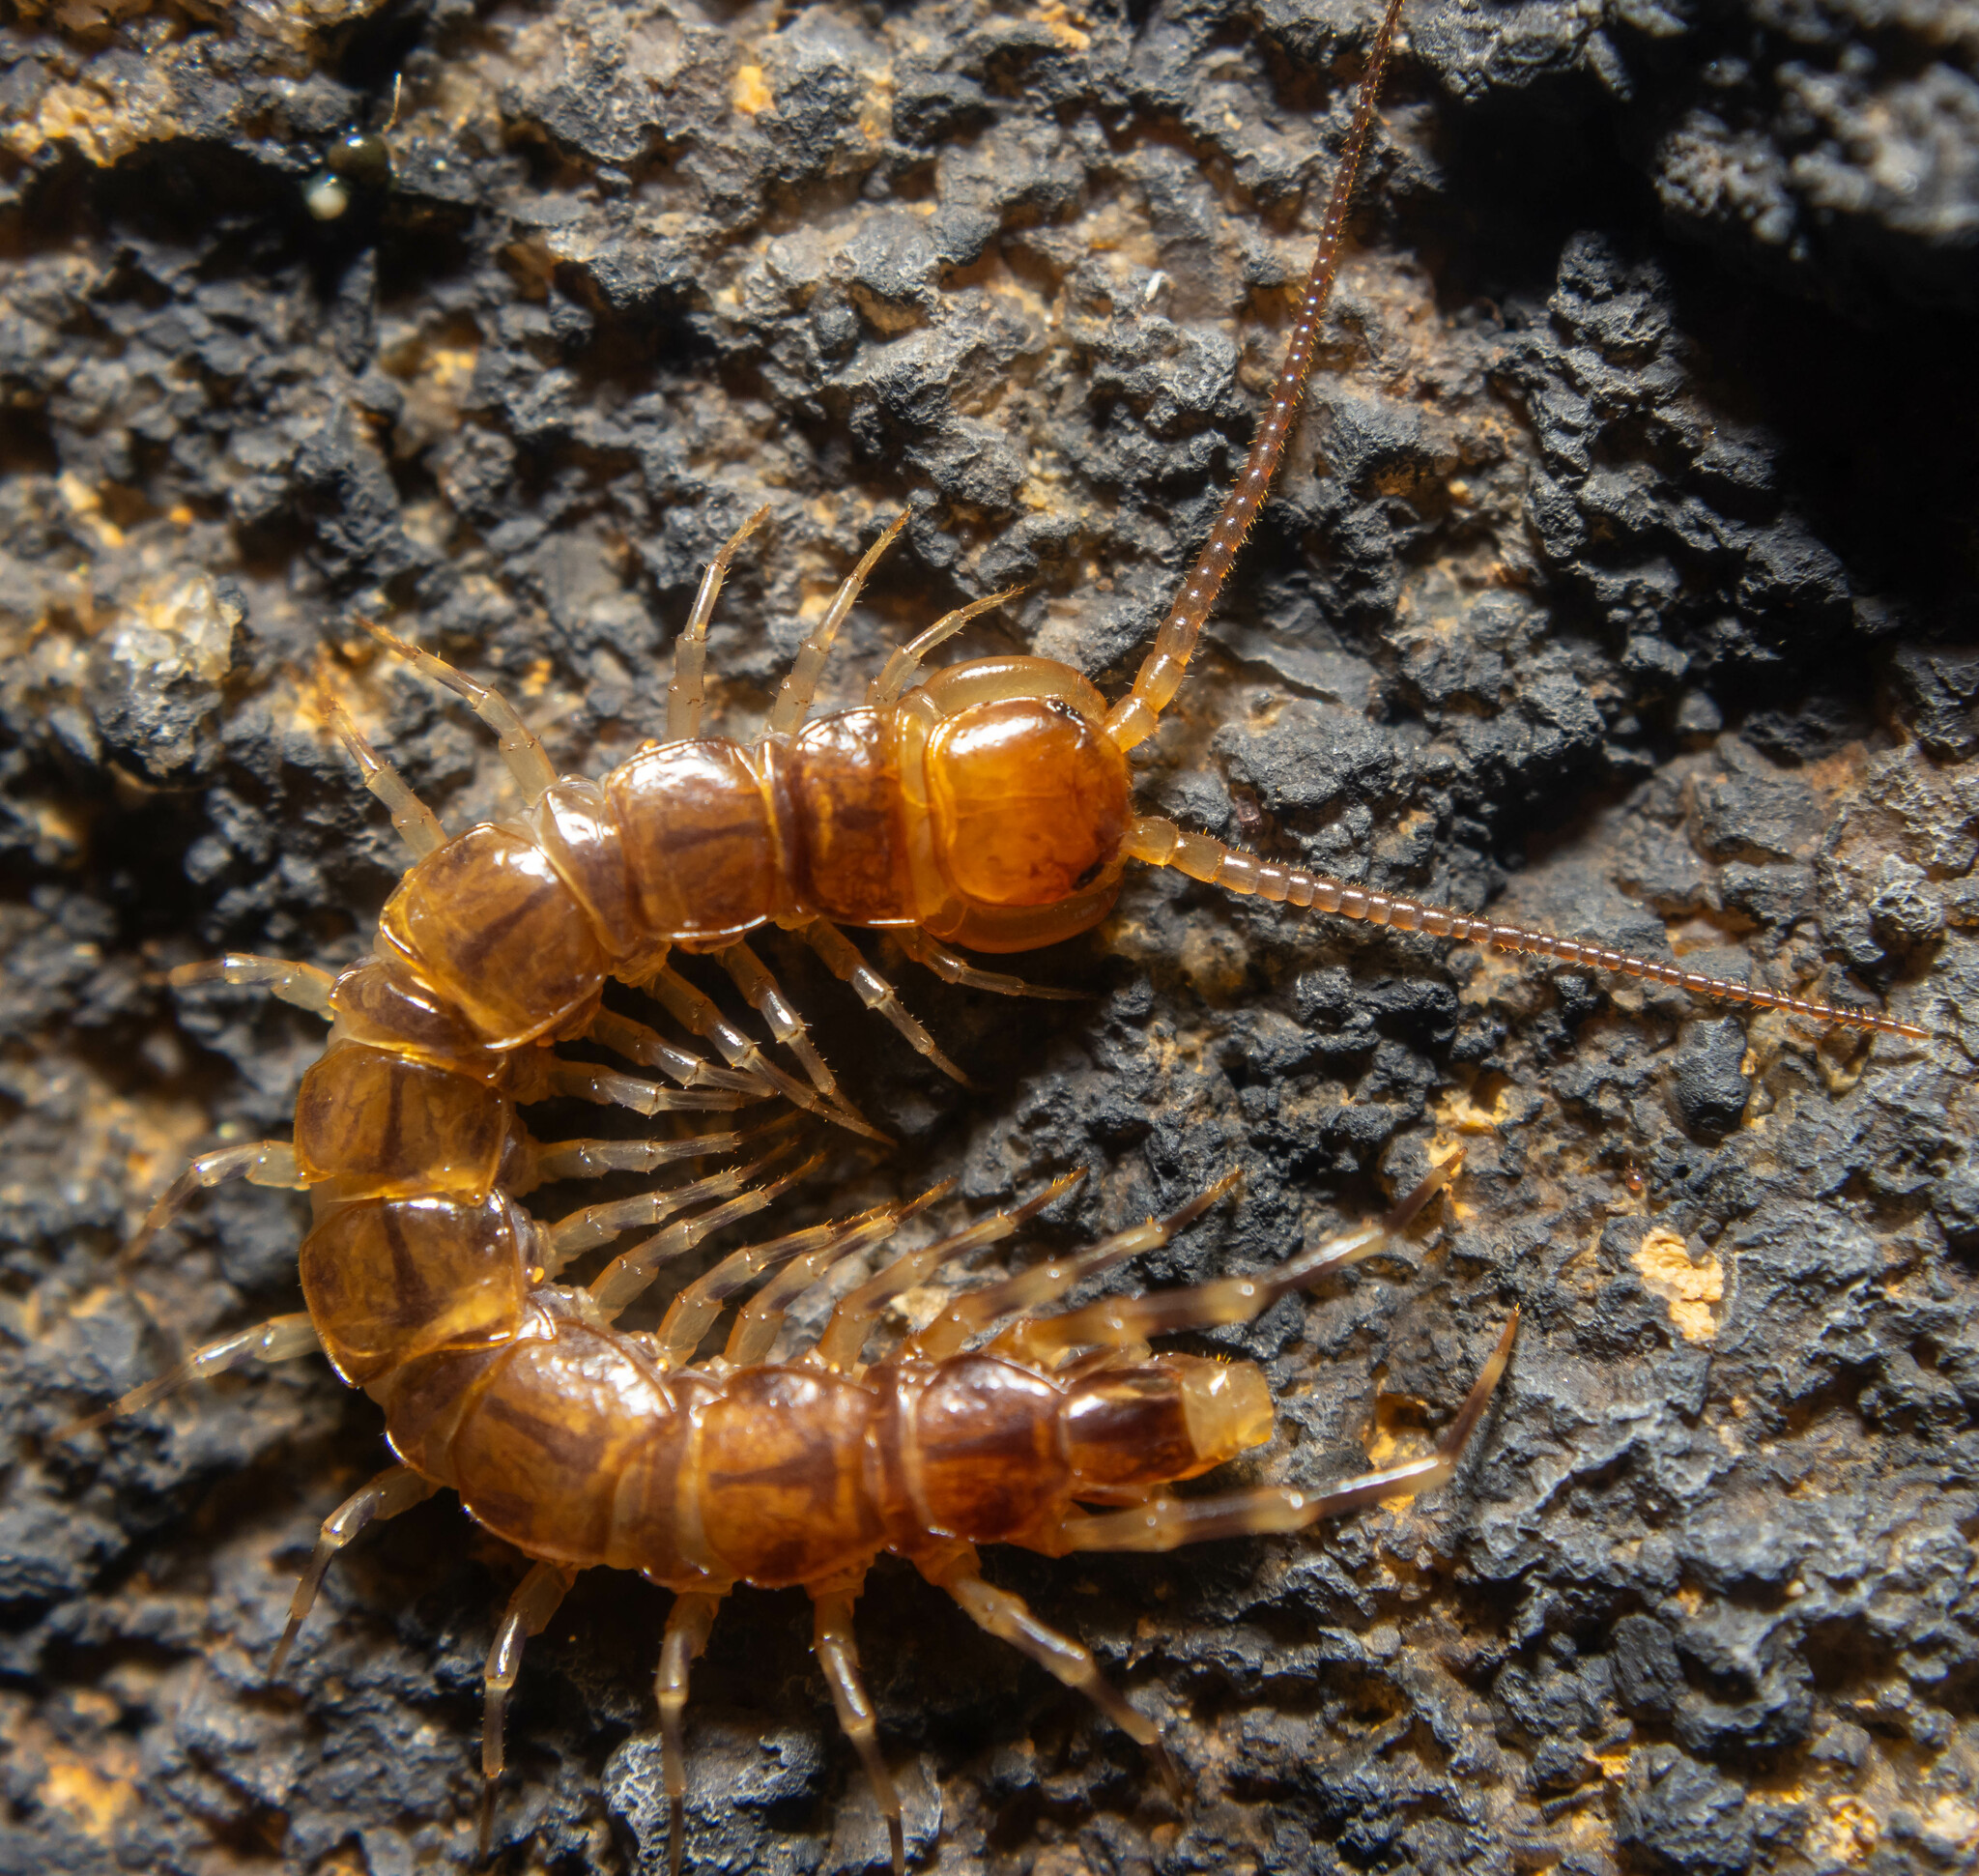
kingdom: Animalia
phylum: Arthropoda
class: Chilopoda
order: Lithobiomorpha
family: Lithobiidae
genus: Lithobius
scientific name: Lithobius variegatus
